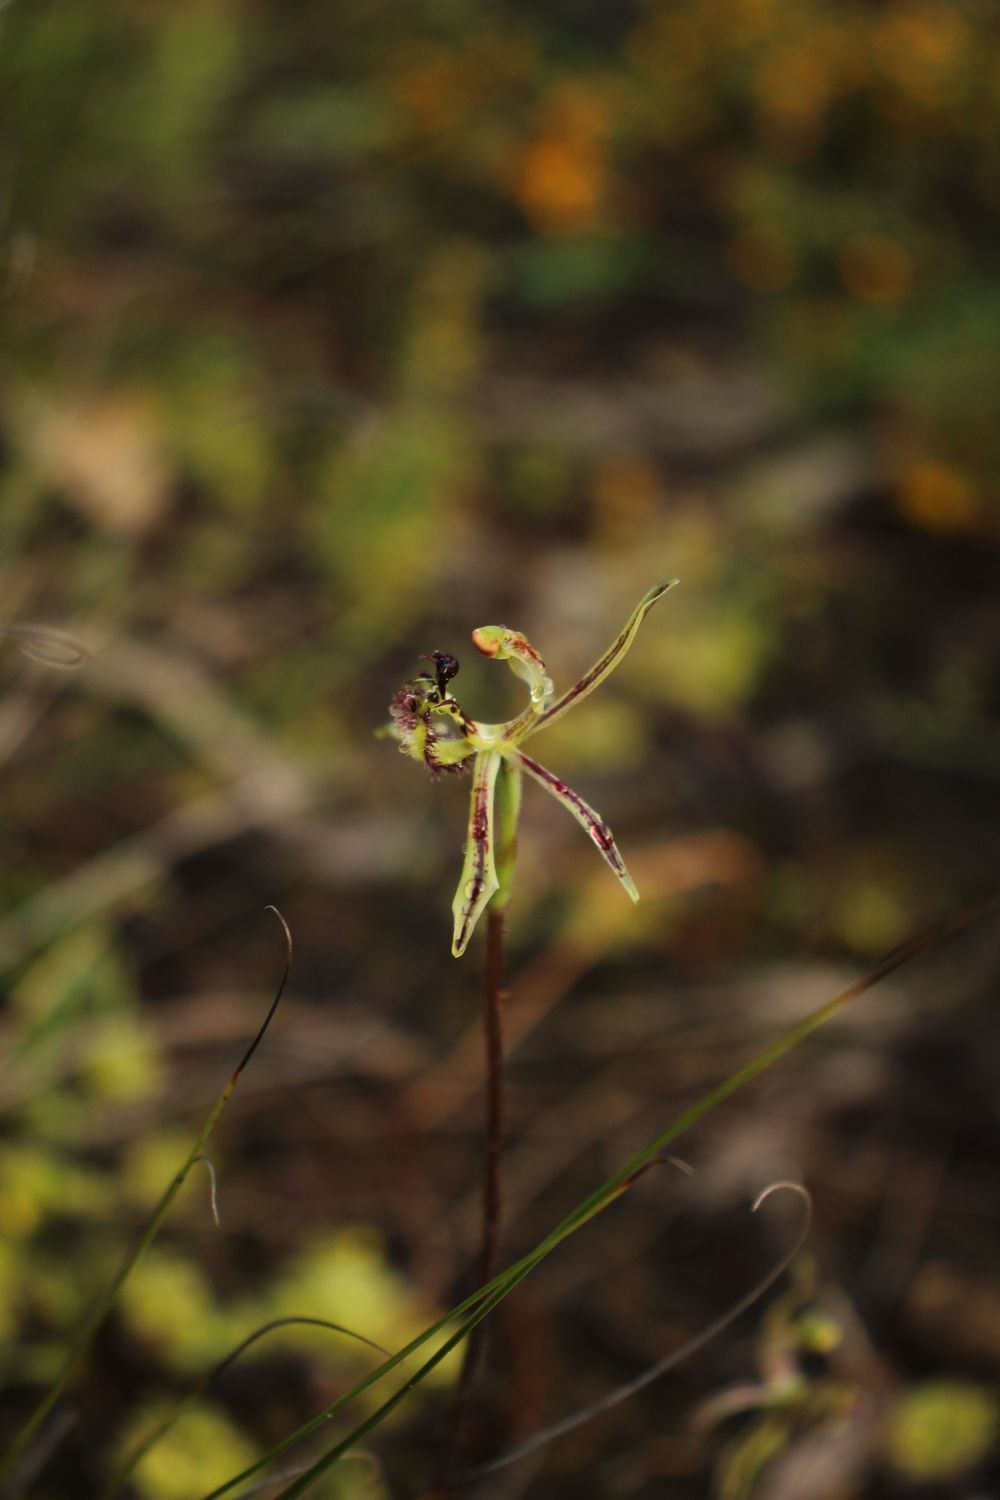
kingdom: Plantae
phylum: Tracheophyta
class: Liliopsida
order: Asparagales
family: Orchidaceae
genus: Caladenia
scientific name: Caladenia barbarossa
